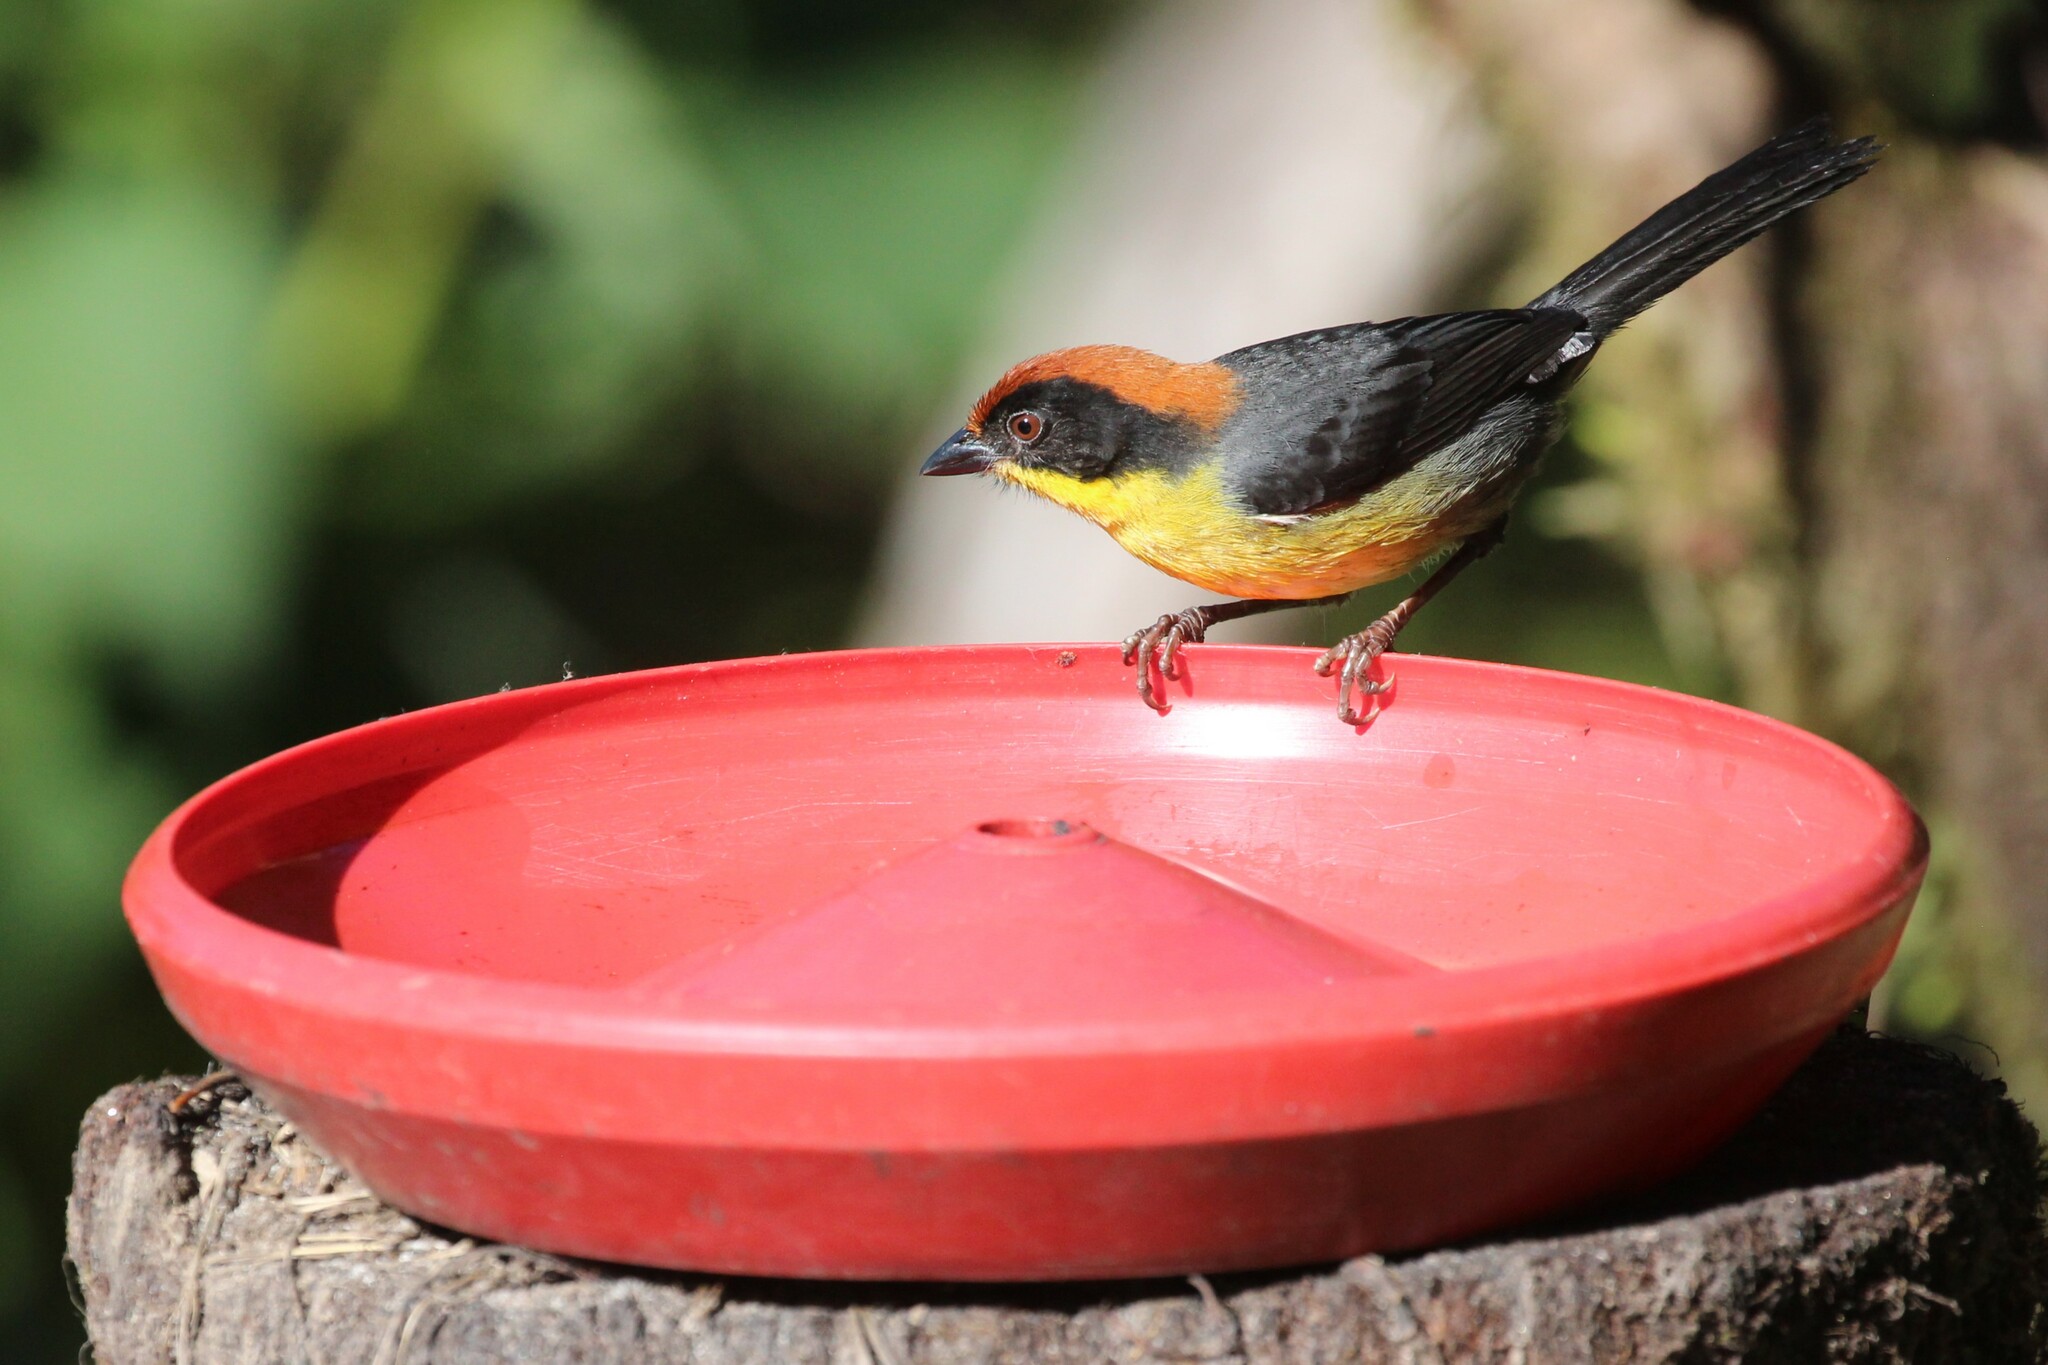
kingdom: Animalia
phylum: Chordata
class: Aves
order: Passeriformes
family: Passerellidae
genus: Atlapetes
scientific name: Atlapetes latinuchus
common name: Yellow-breasted brushfinch
